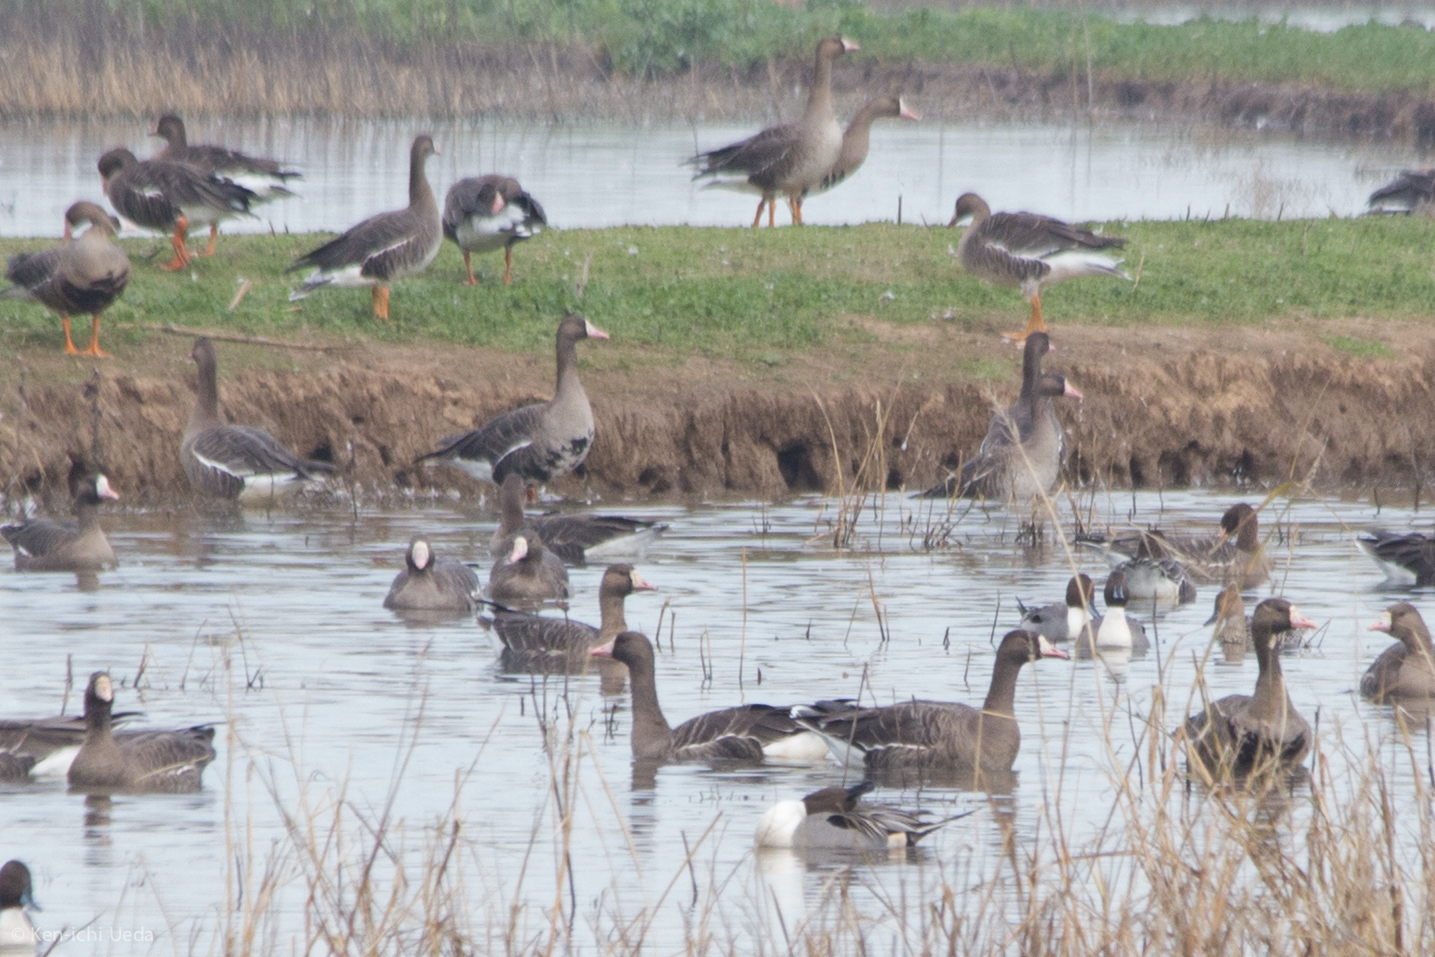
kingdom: Animalia
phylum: Chordata
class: Aves
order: Anseriformes
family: Anatidae
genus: Anser
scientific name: Anser albifrons
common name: Greater white-fronted goose
